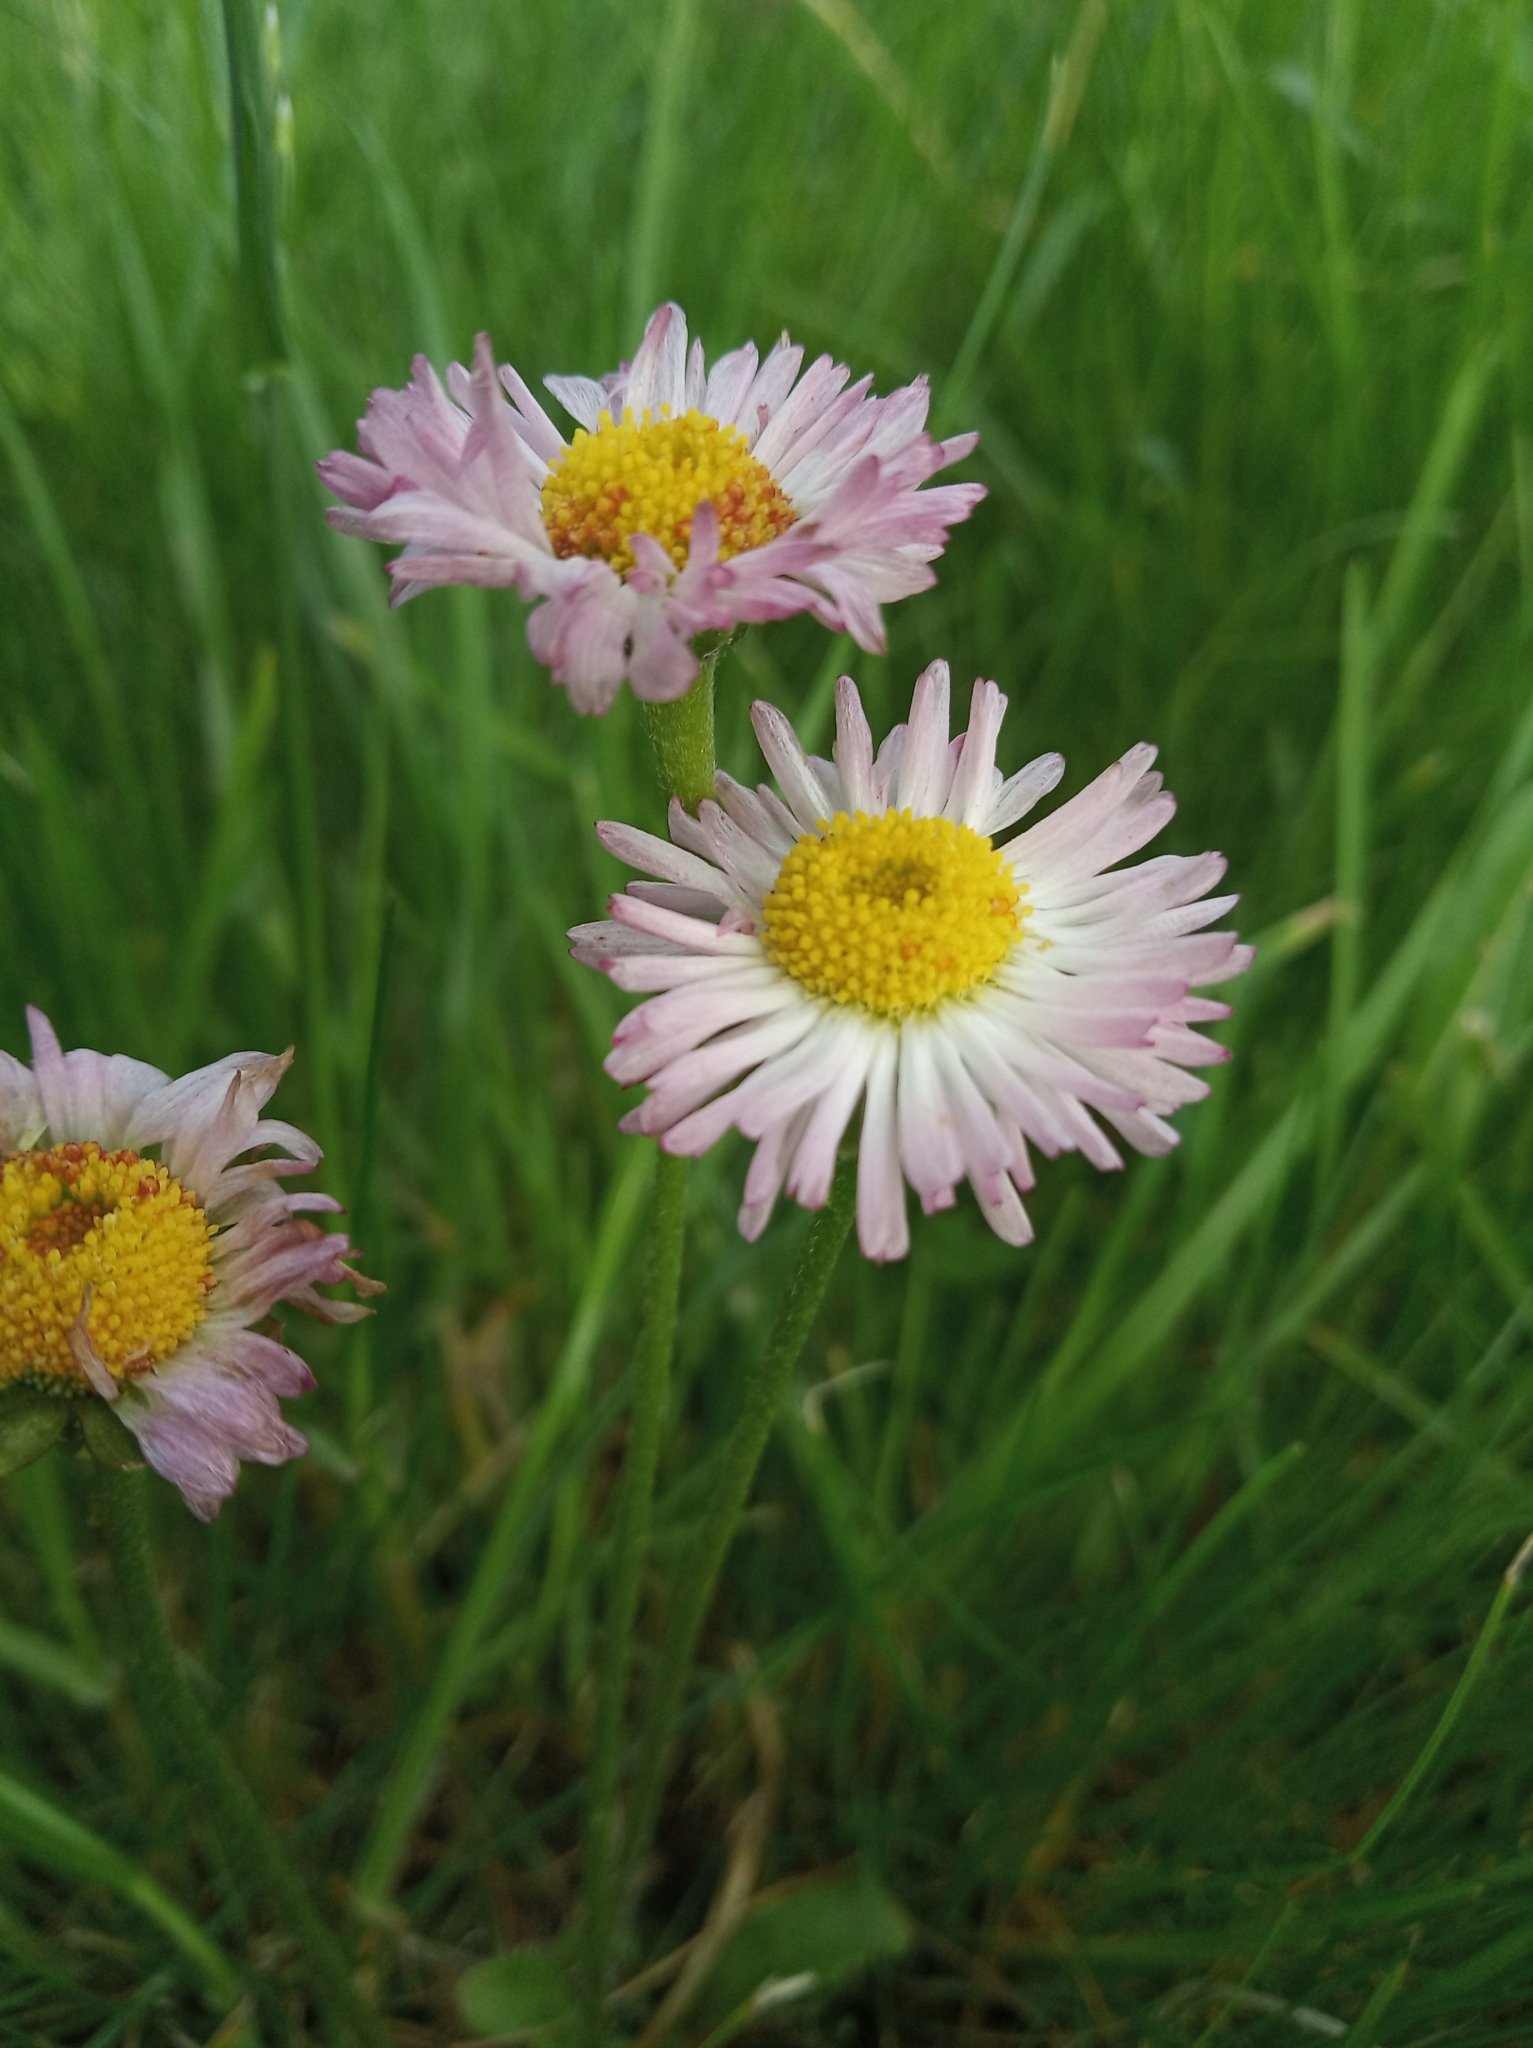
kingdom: Plantae
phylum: Tracheophyta
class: Magnoliopsida
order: Asterales
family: Asteraceae
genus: Bellis
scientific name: Bellis perennis
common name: Lawndaisy
